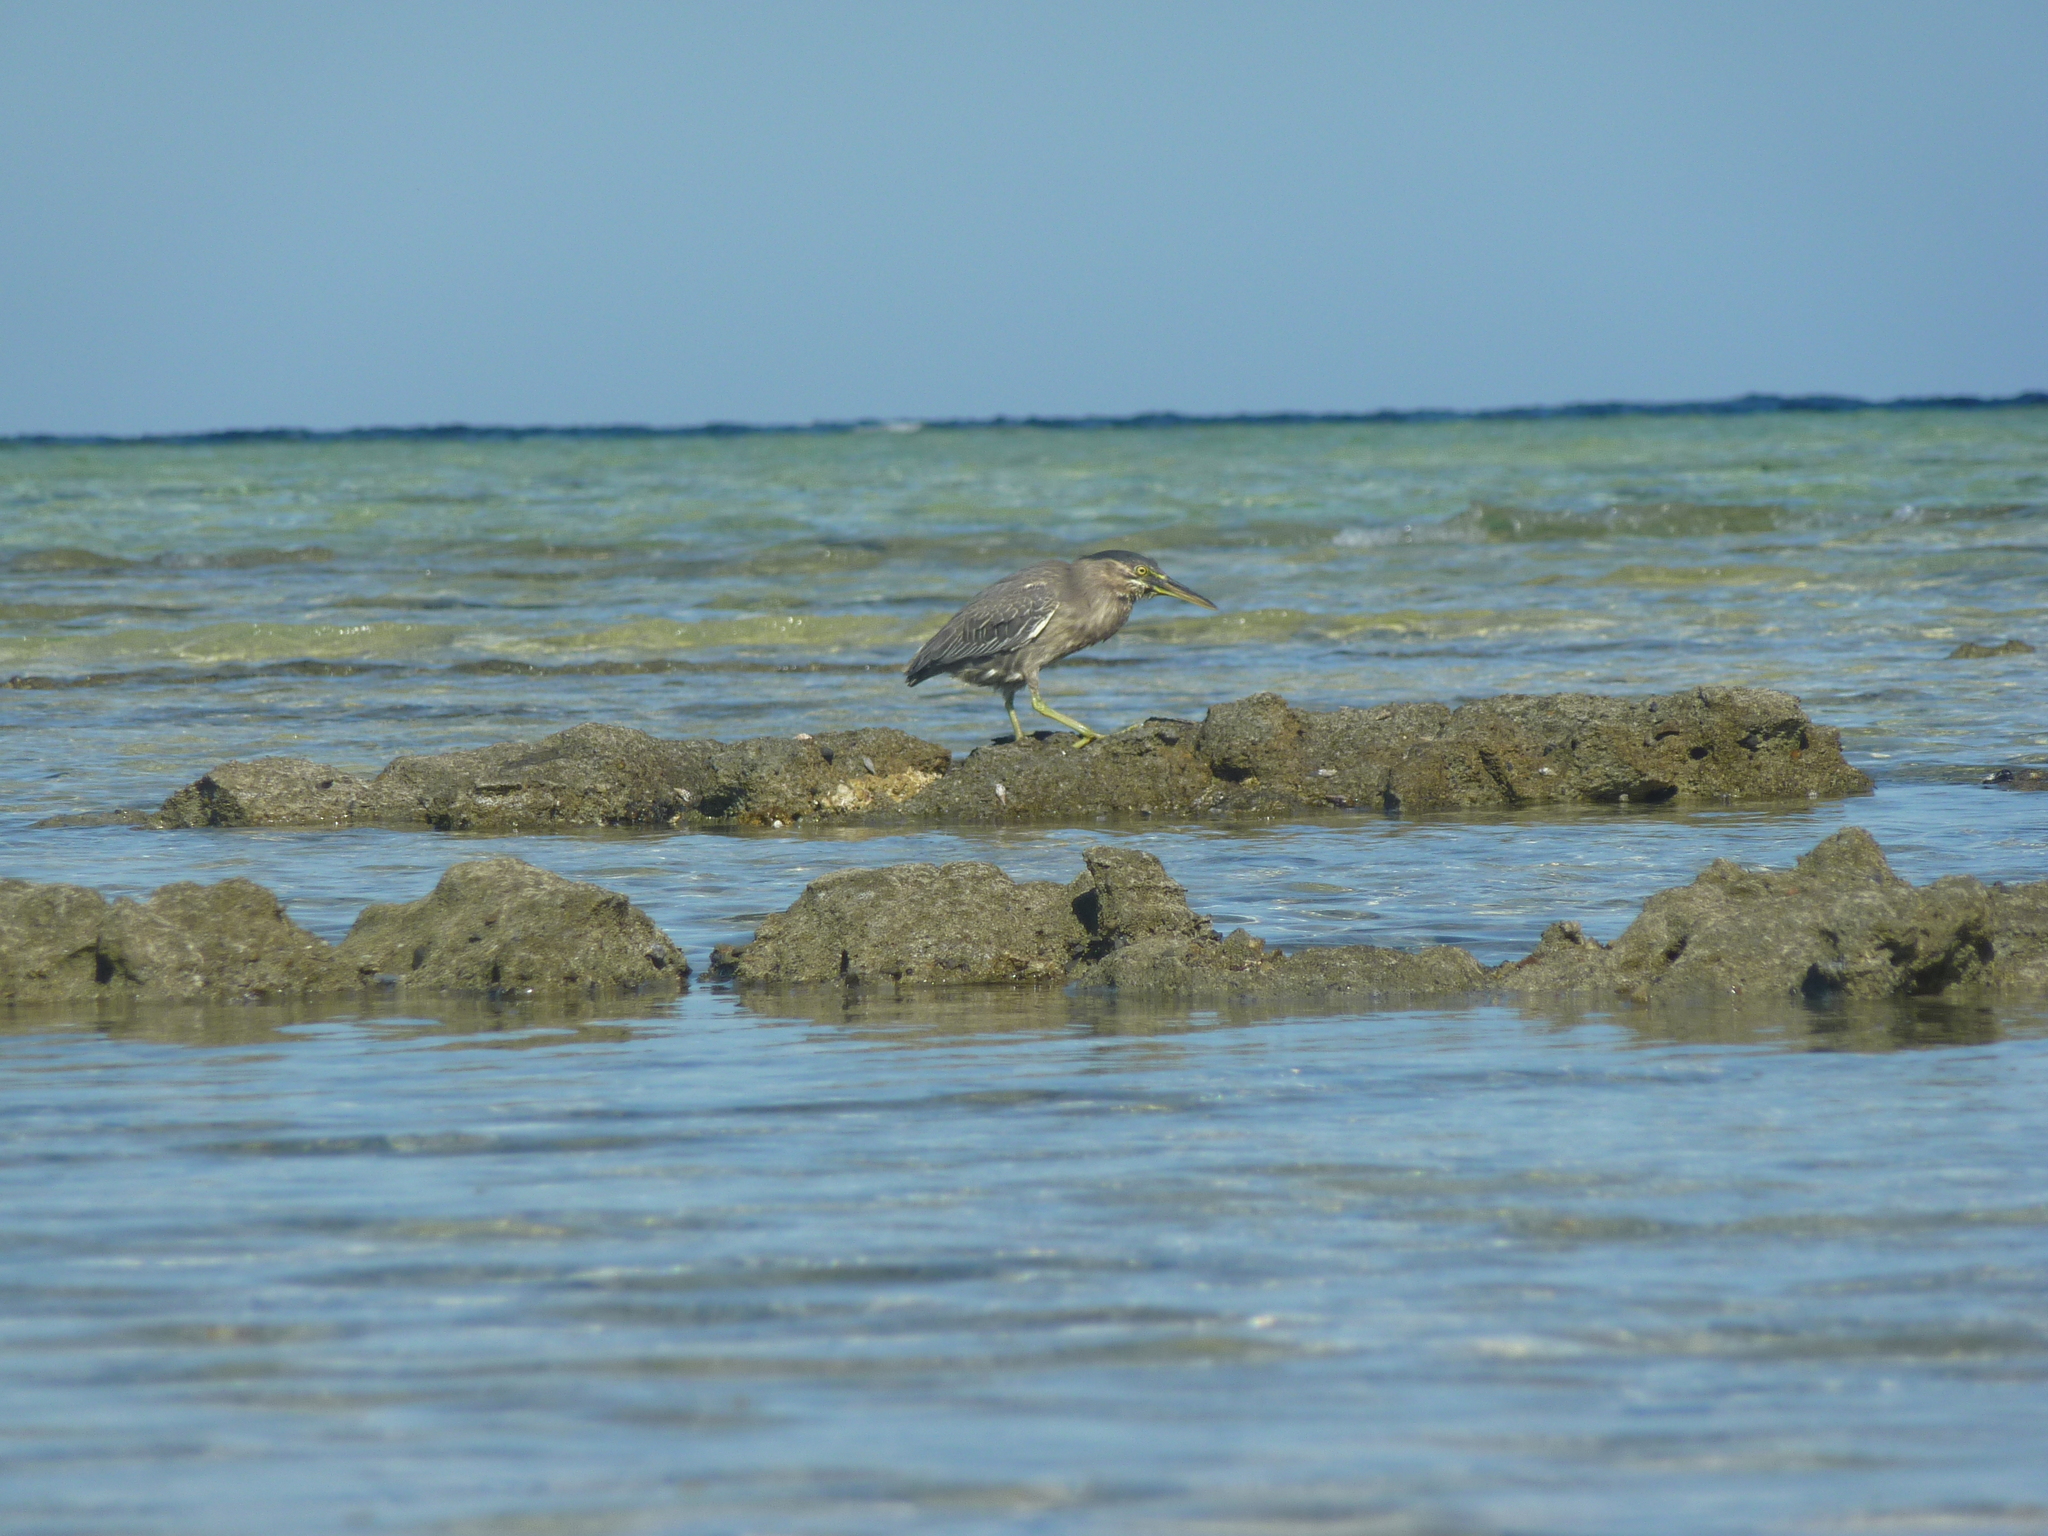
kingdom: Animalia
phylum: Chordata
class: Aves
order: Pelecaniformes
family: Ardeidae
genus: Butorides
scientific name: Butorides striata
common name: Striated heron
